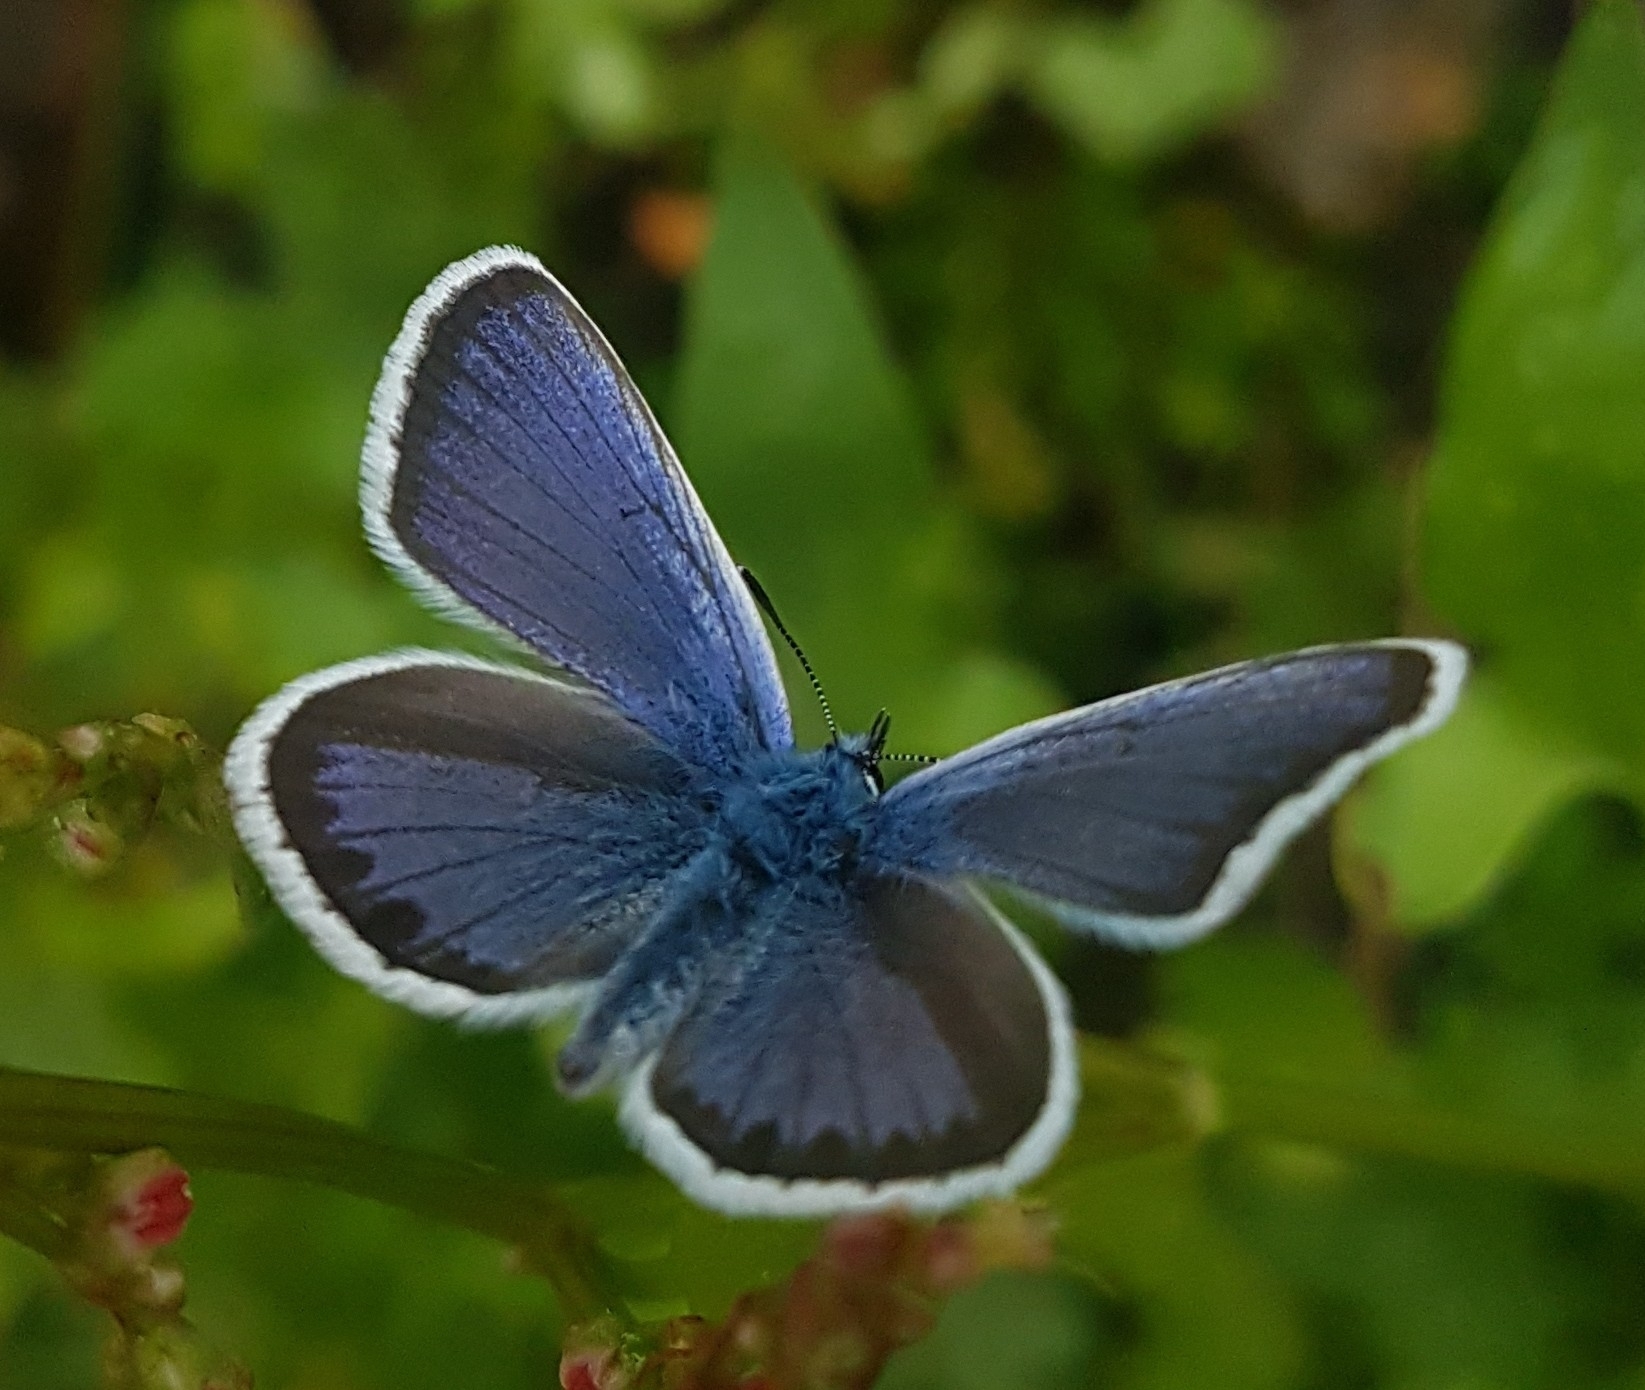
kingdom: Animalia
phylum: Arthropoda
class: Insecta
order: Lepidoptera
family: Lycaenidae
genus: Plebejus
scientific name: Plebejus argus
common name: Silver-studded blue
